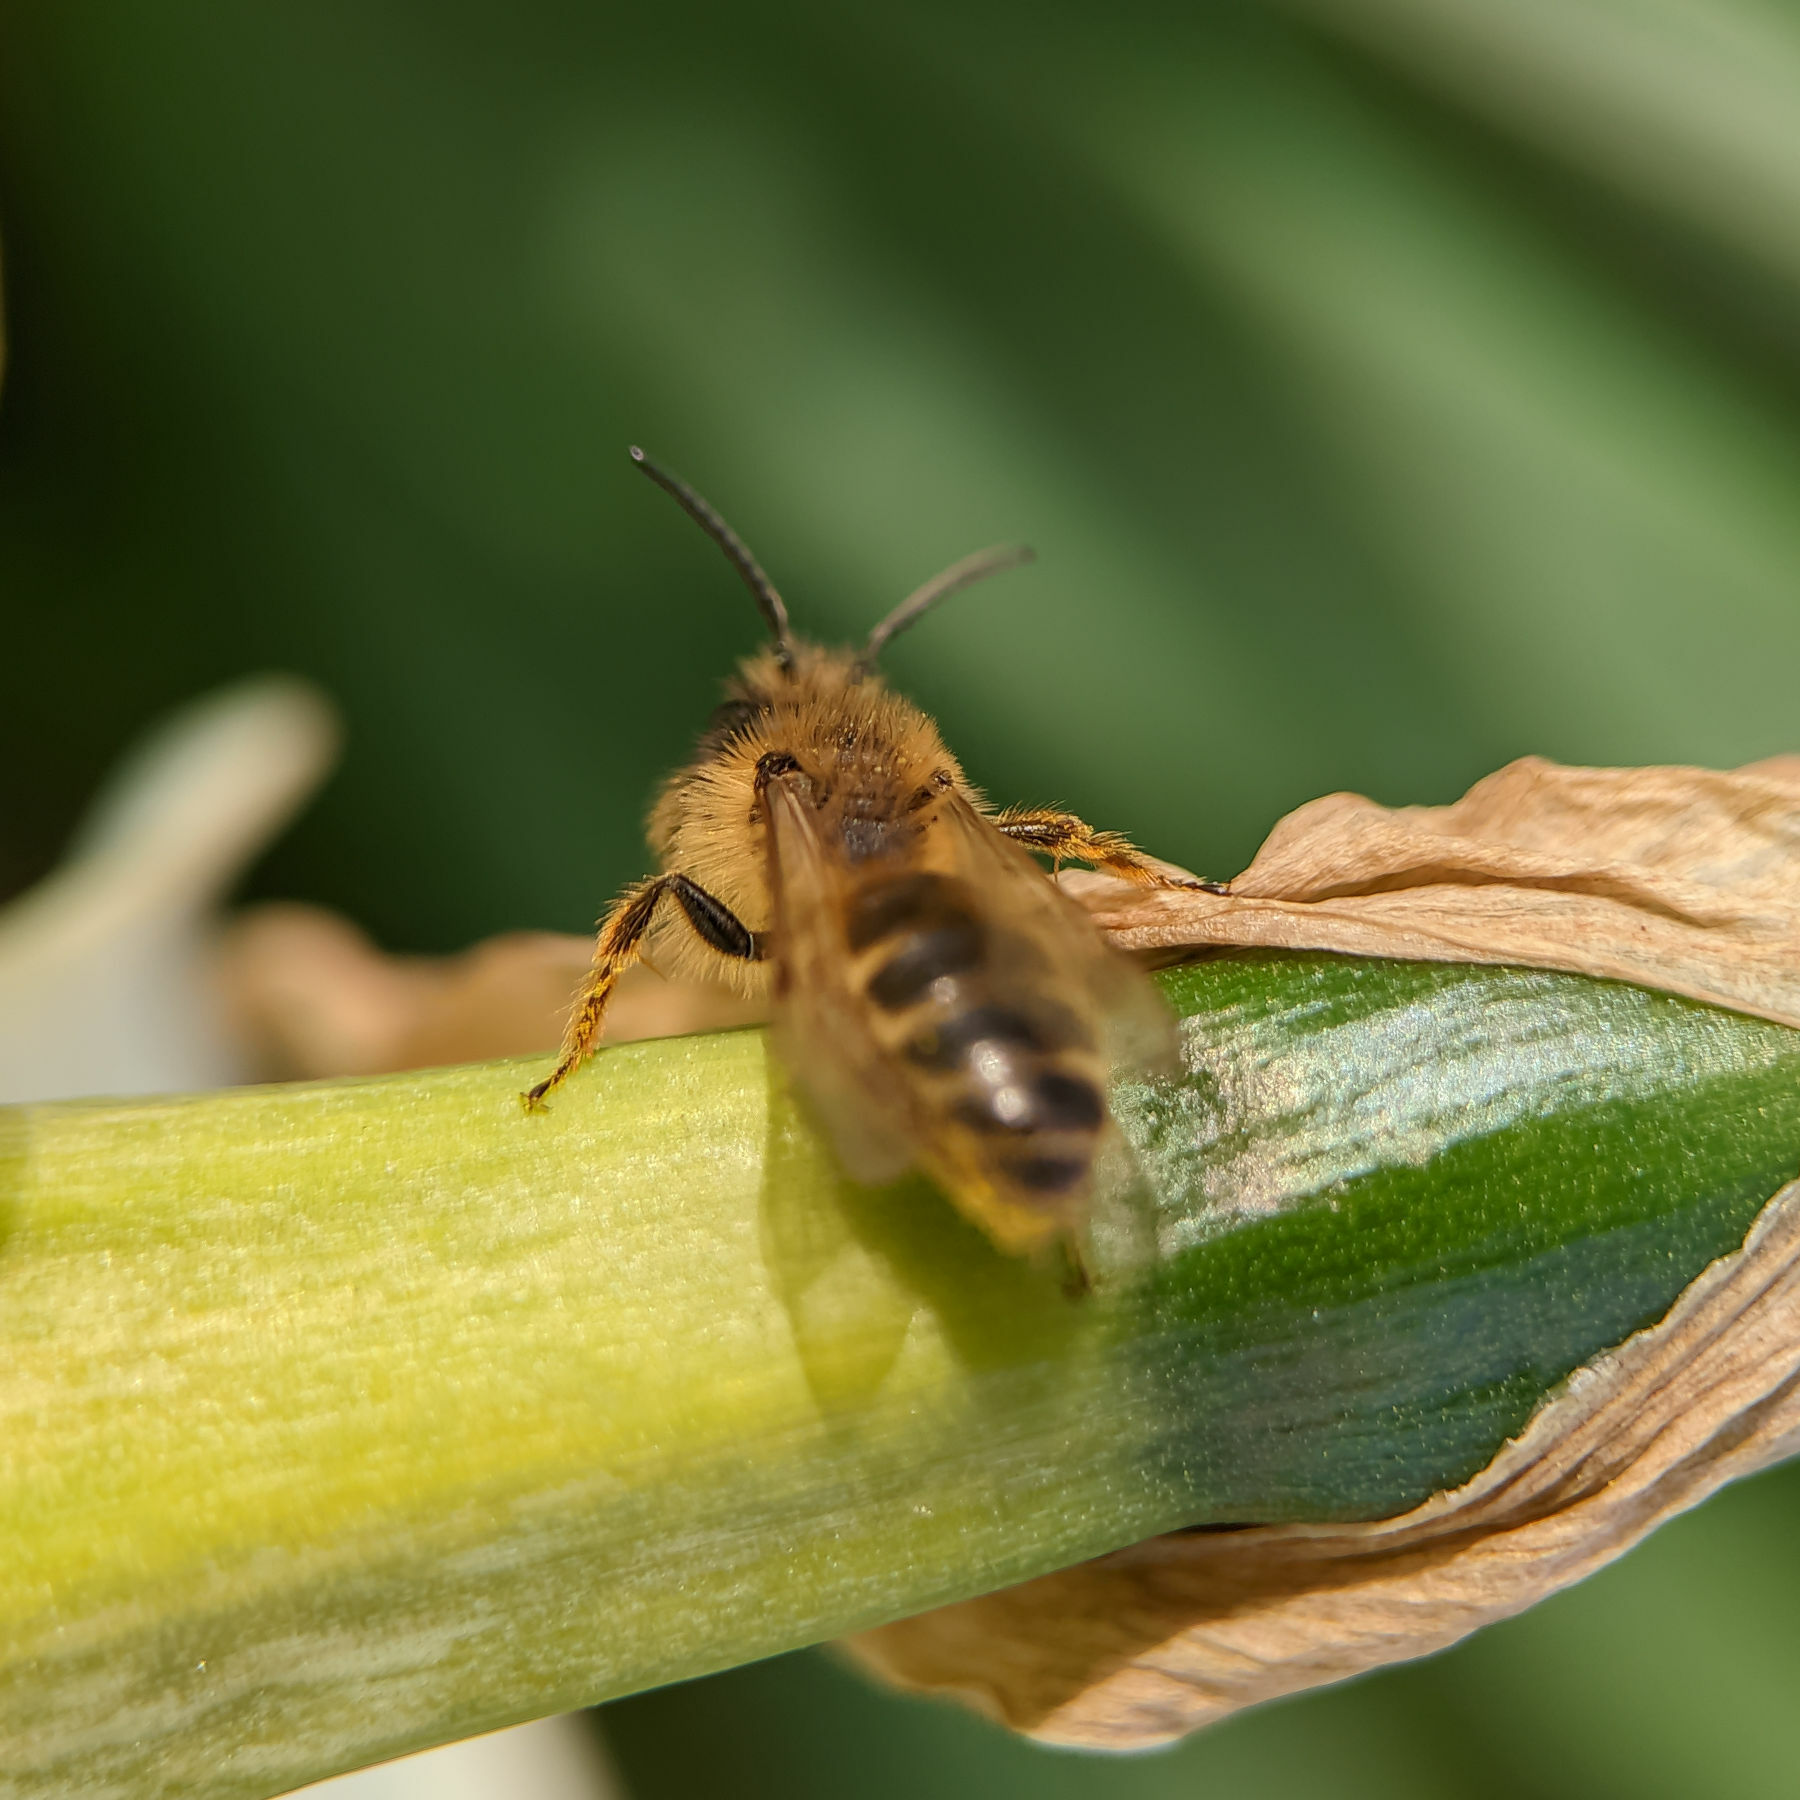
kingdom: Animalia
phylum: Arthropoda
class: Insecta
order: Hymenoptera
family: Andrenidae
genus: Andrena
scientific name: Andrena flavipes
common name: Yellow-legged mining bee
